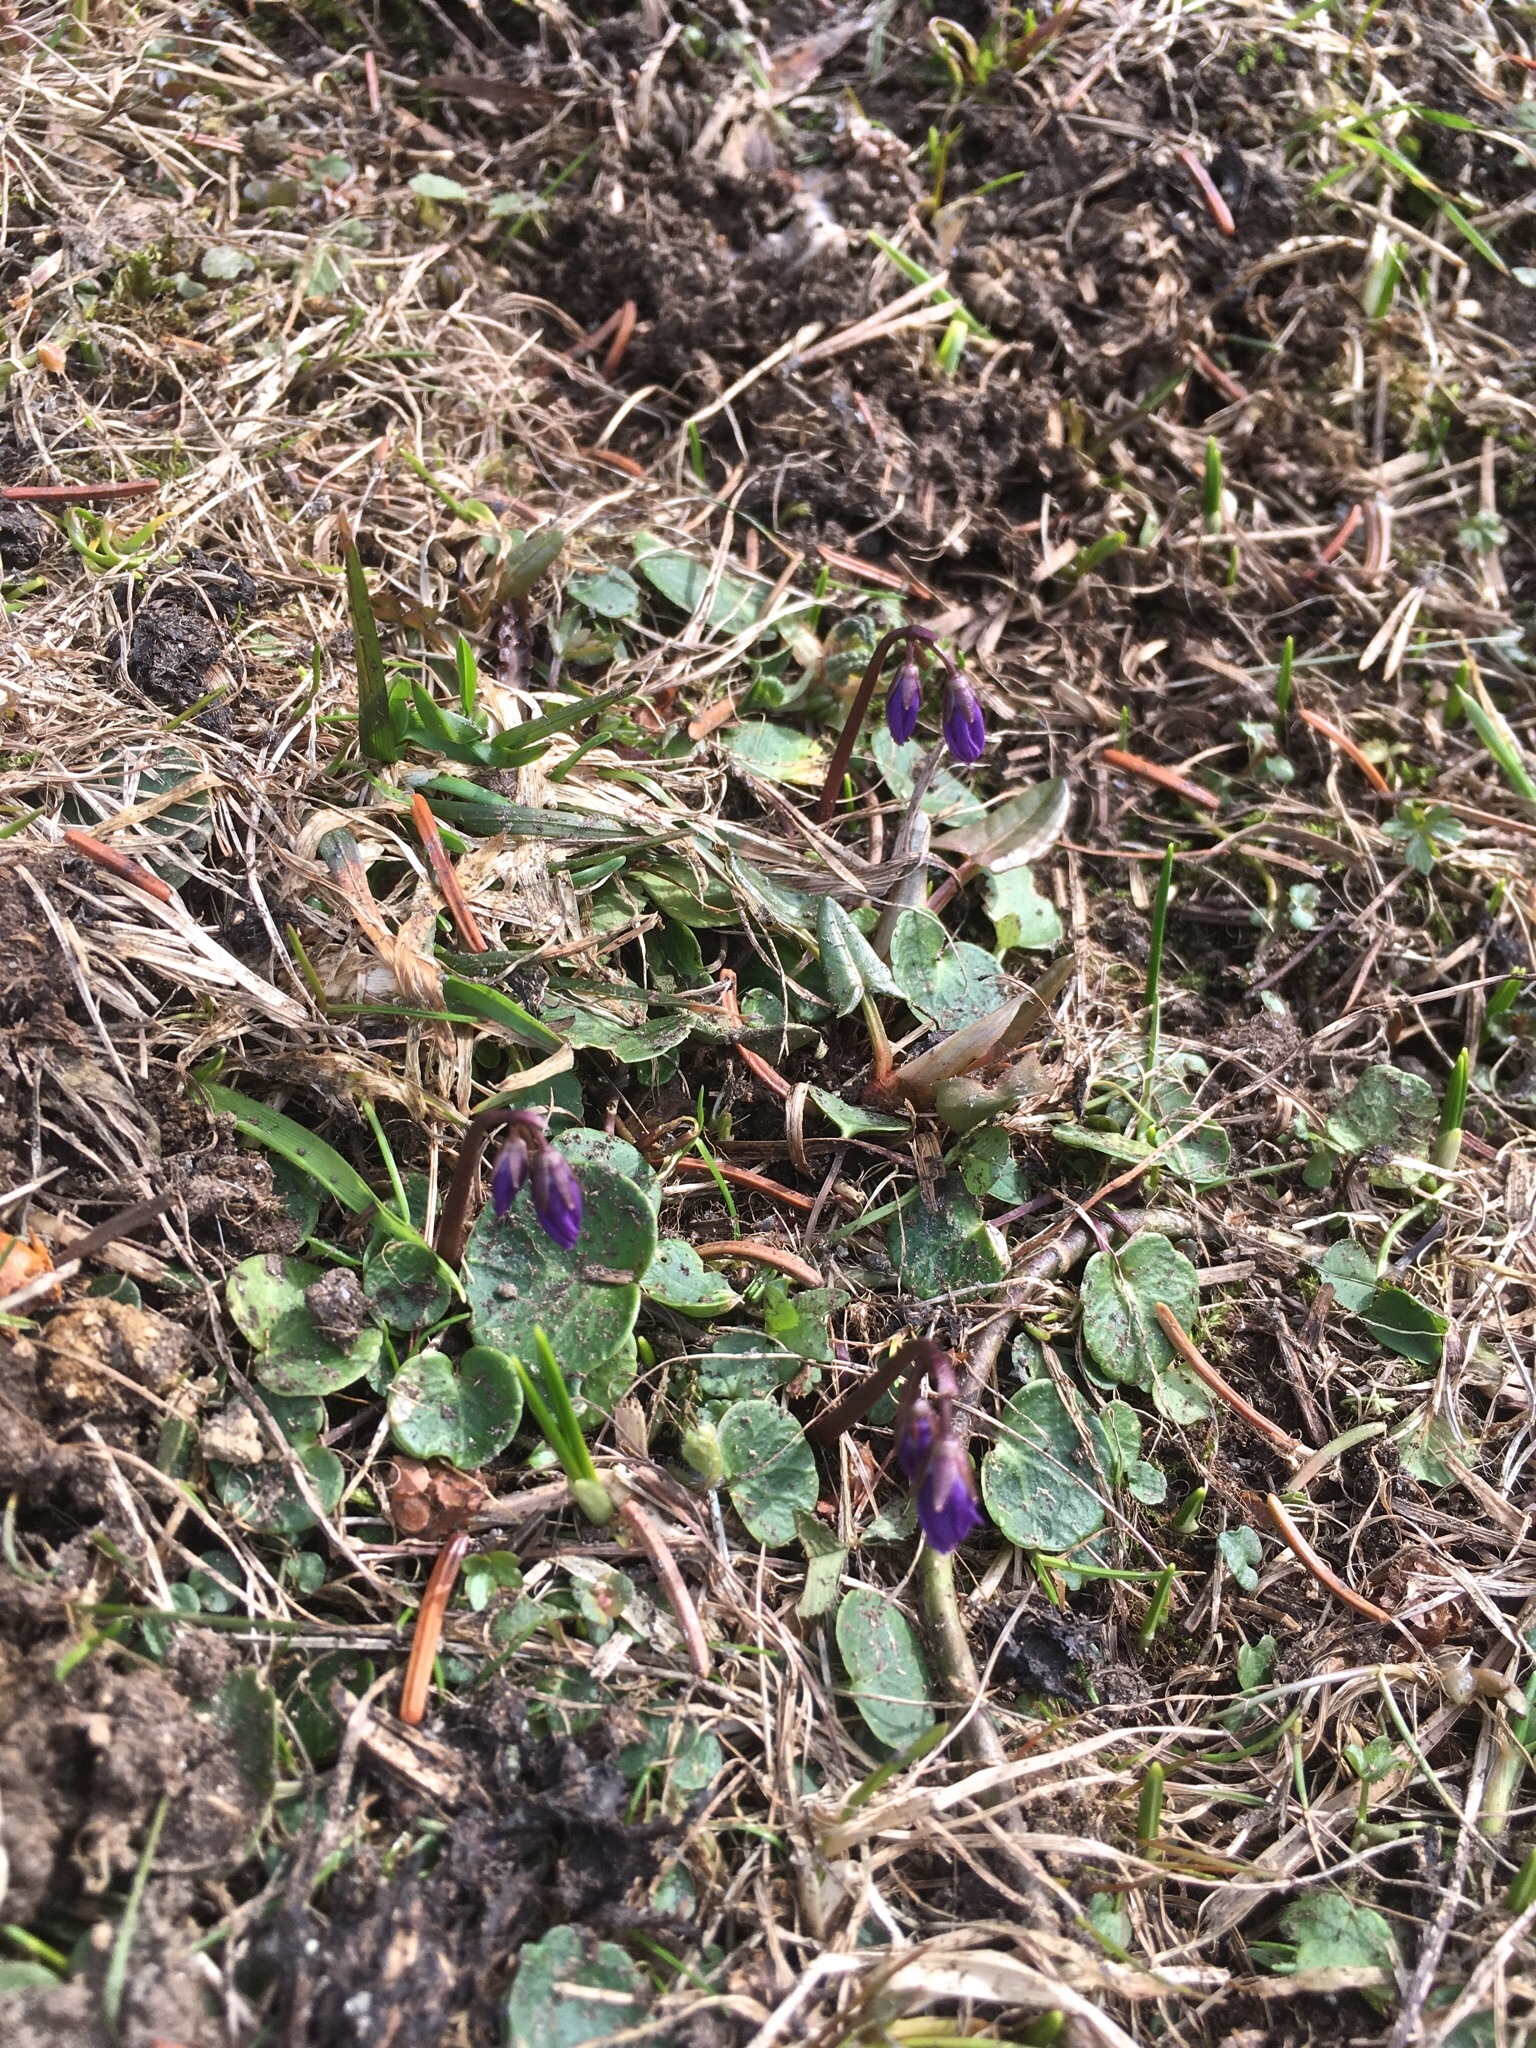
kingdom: Plantae
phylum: Tracheophyta
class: Magnoliopsida
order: Ericales
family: Primulaceae
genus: Soldanella
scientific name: Soldanella alpina
